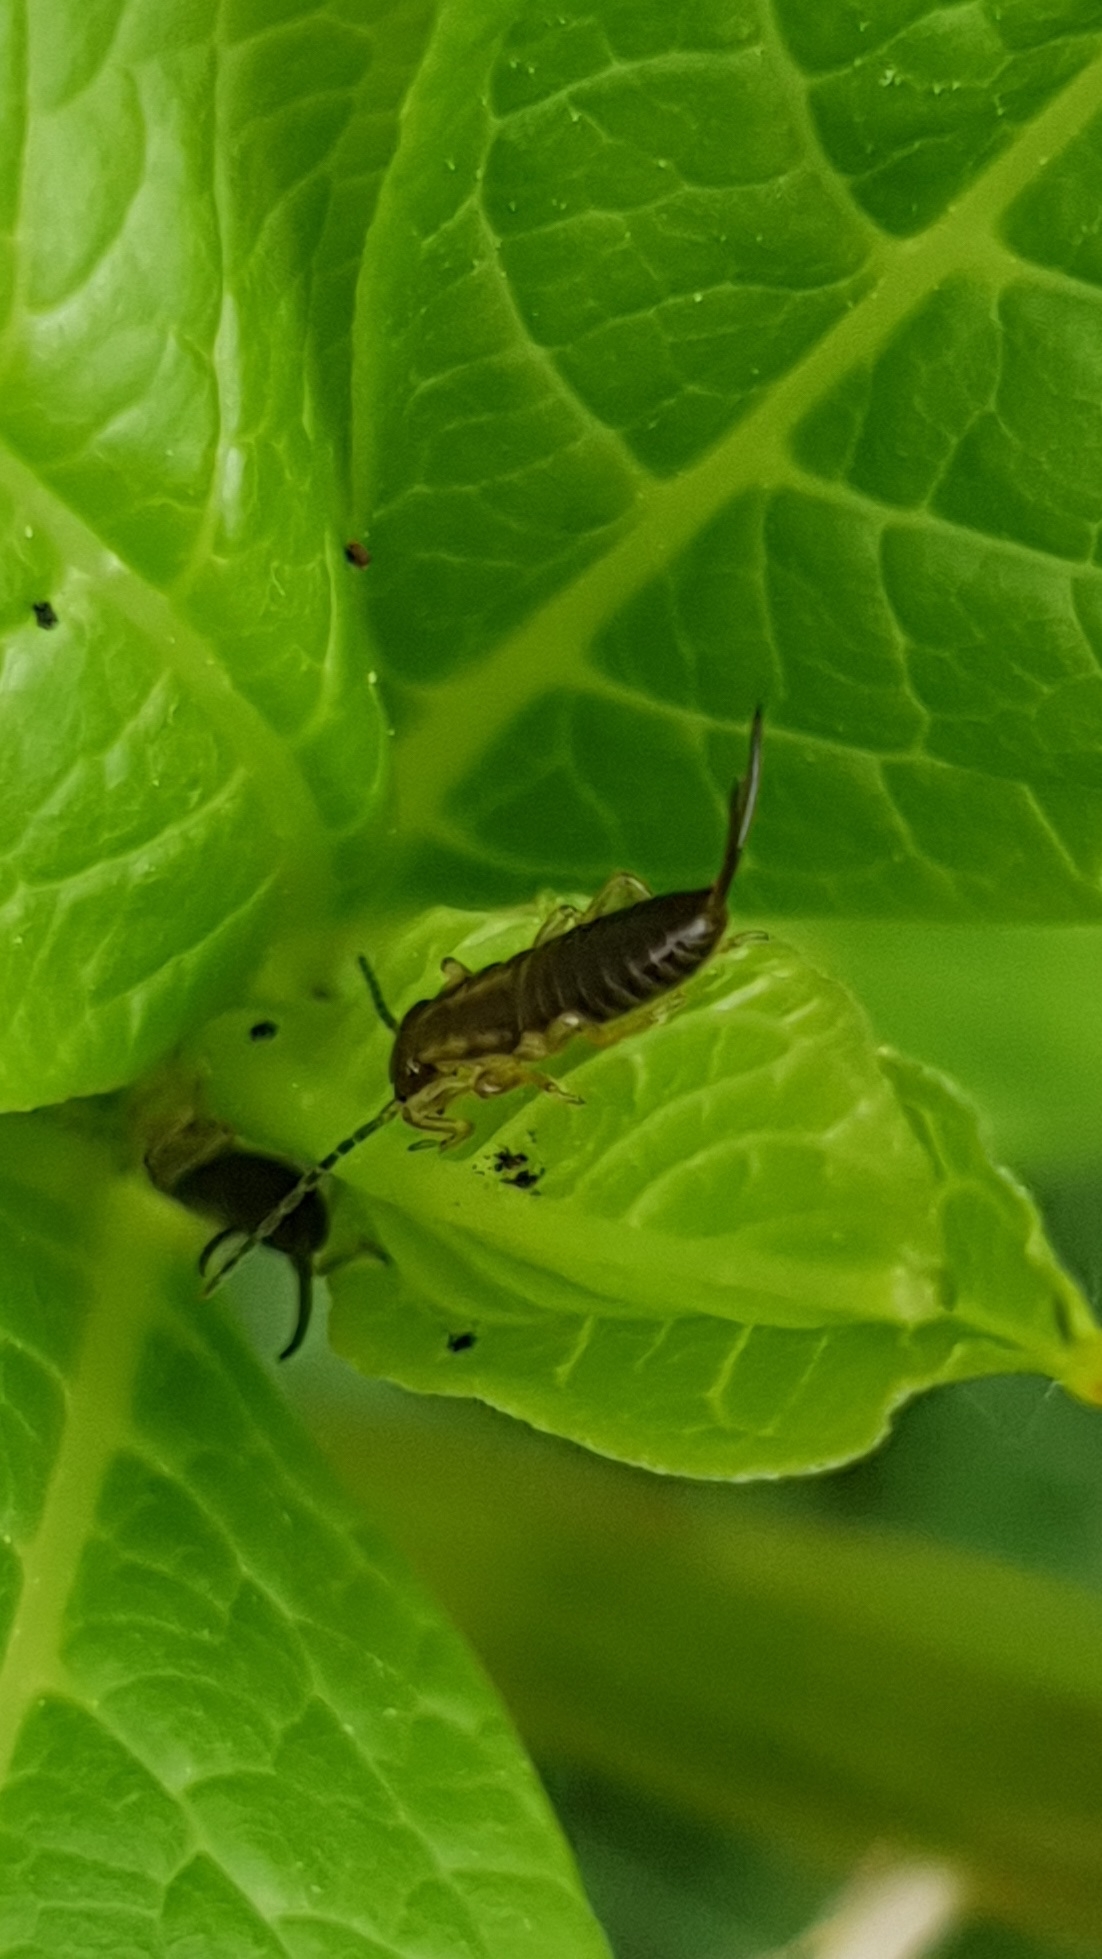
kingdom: Animalia
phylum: Arthropoda
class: Insecta
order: Dermaptera
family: Forficulidae
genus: Forficula
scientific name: Forficula
